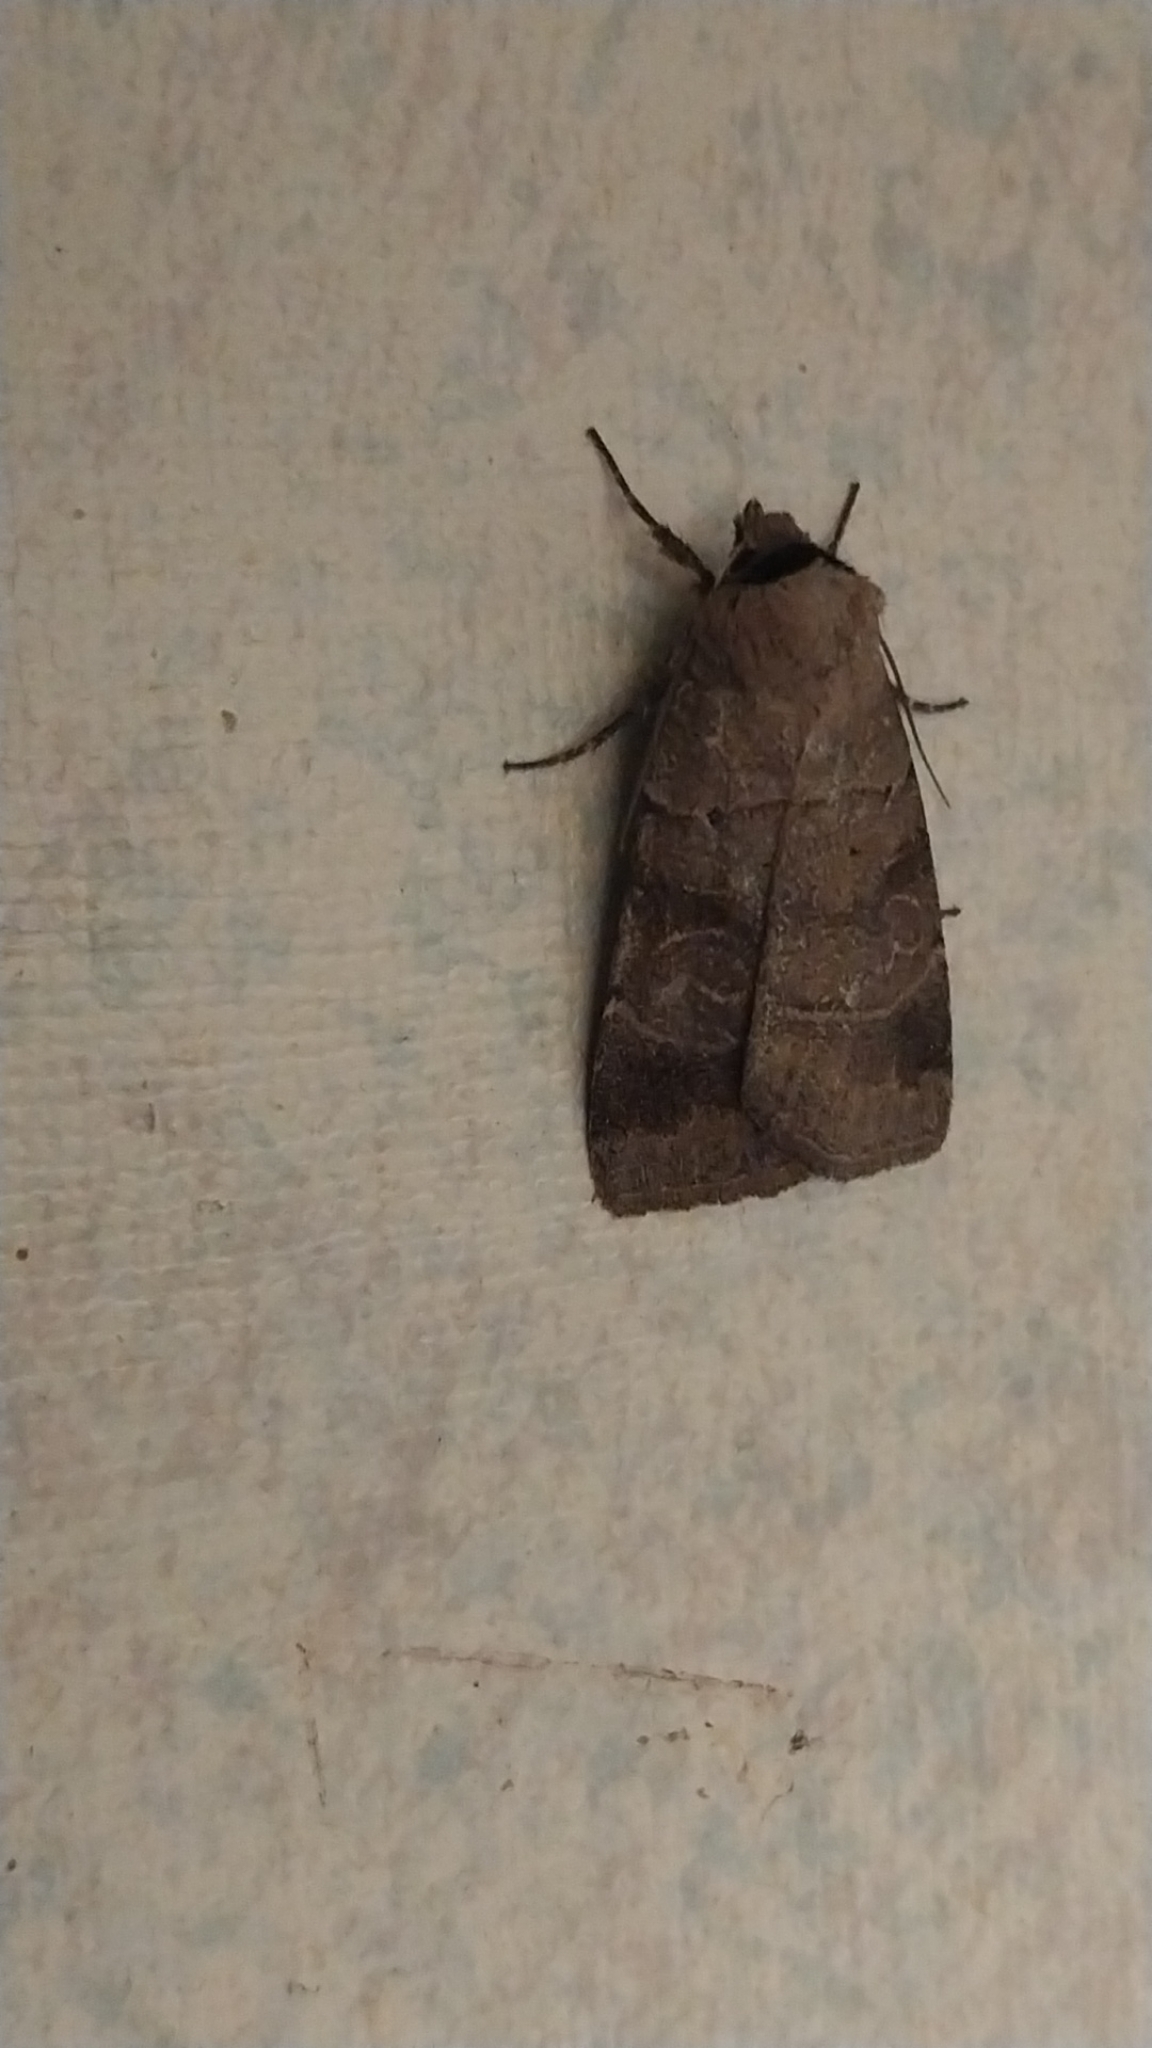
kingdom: Animalia
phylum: Arthropoda
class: Insecta
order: Lepidoptera
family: Noctuidae
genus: Agnorisma
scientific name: Agnorisma badinodis
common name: Pale-banded dart
